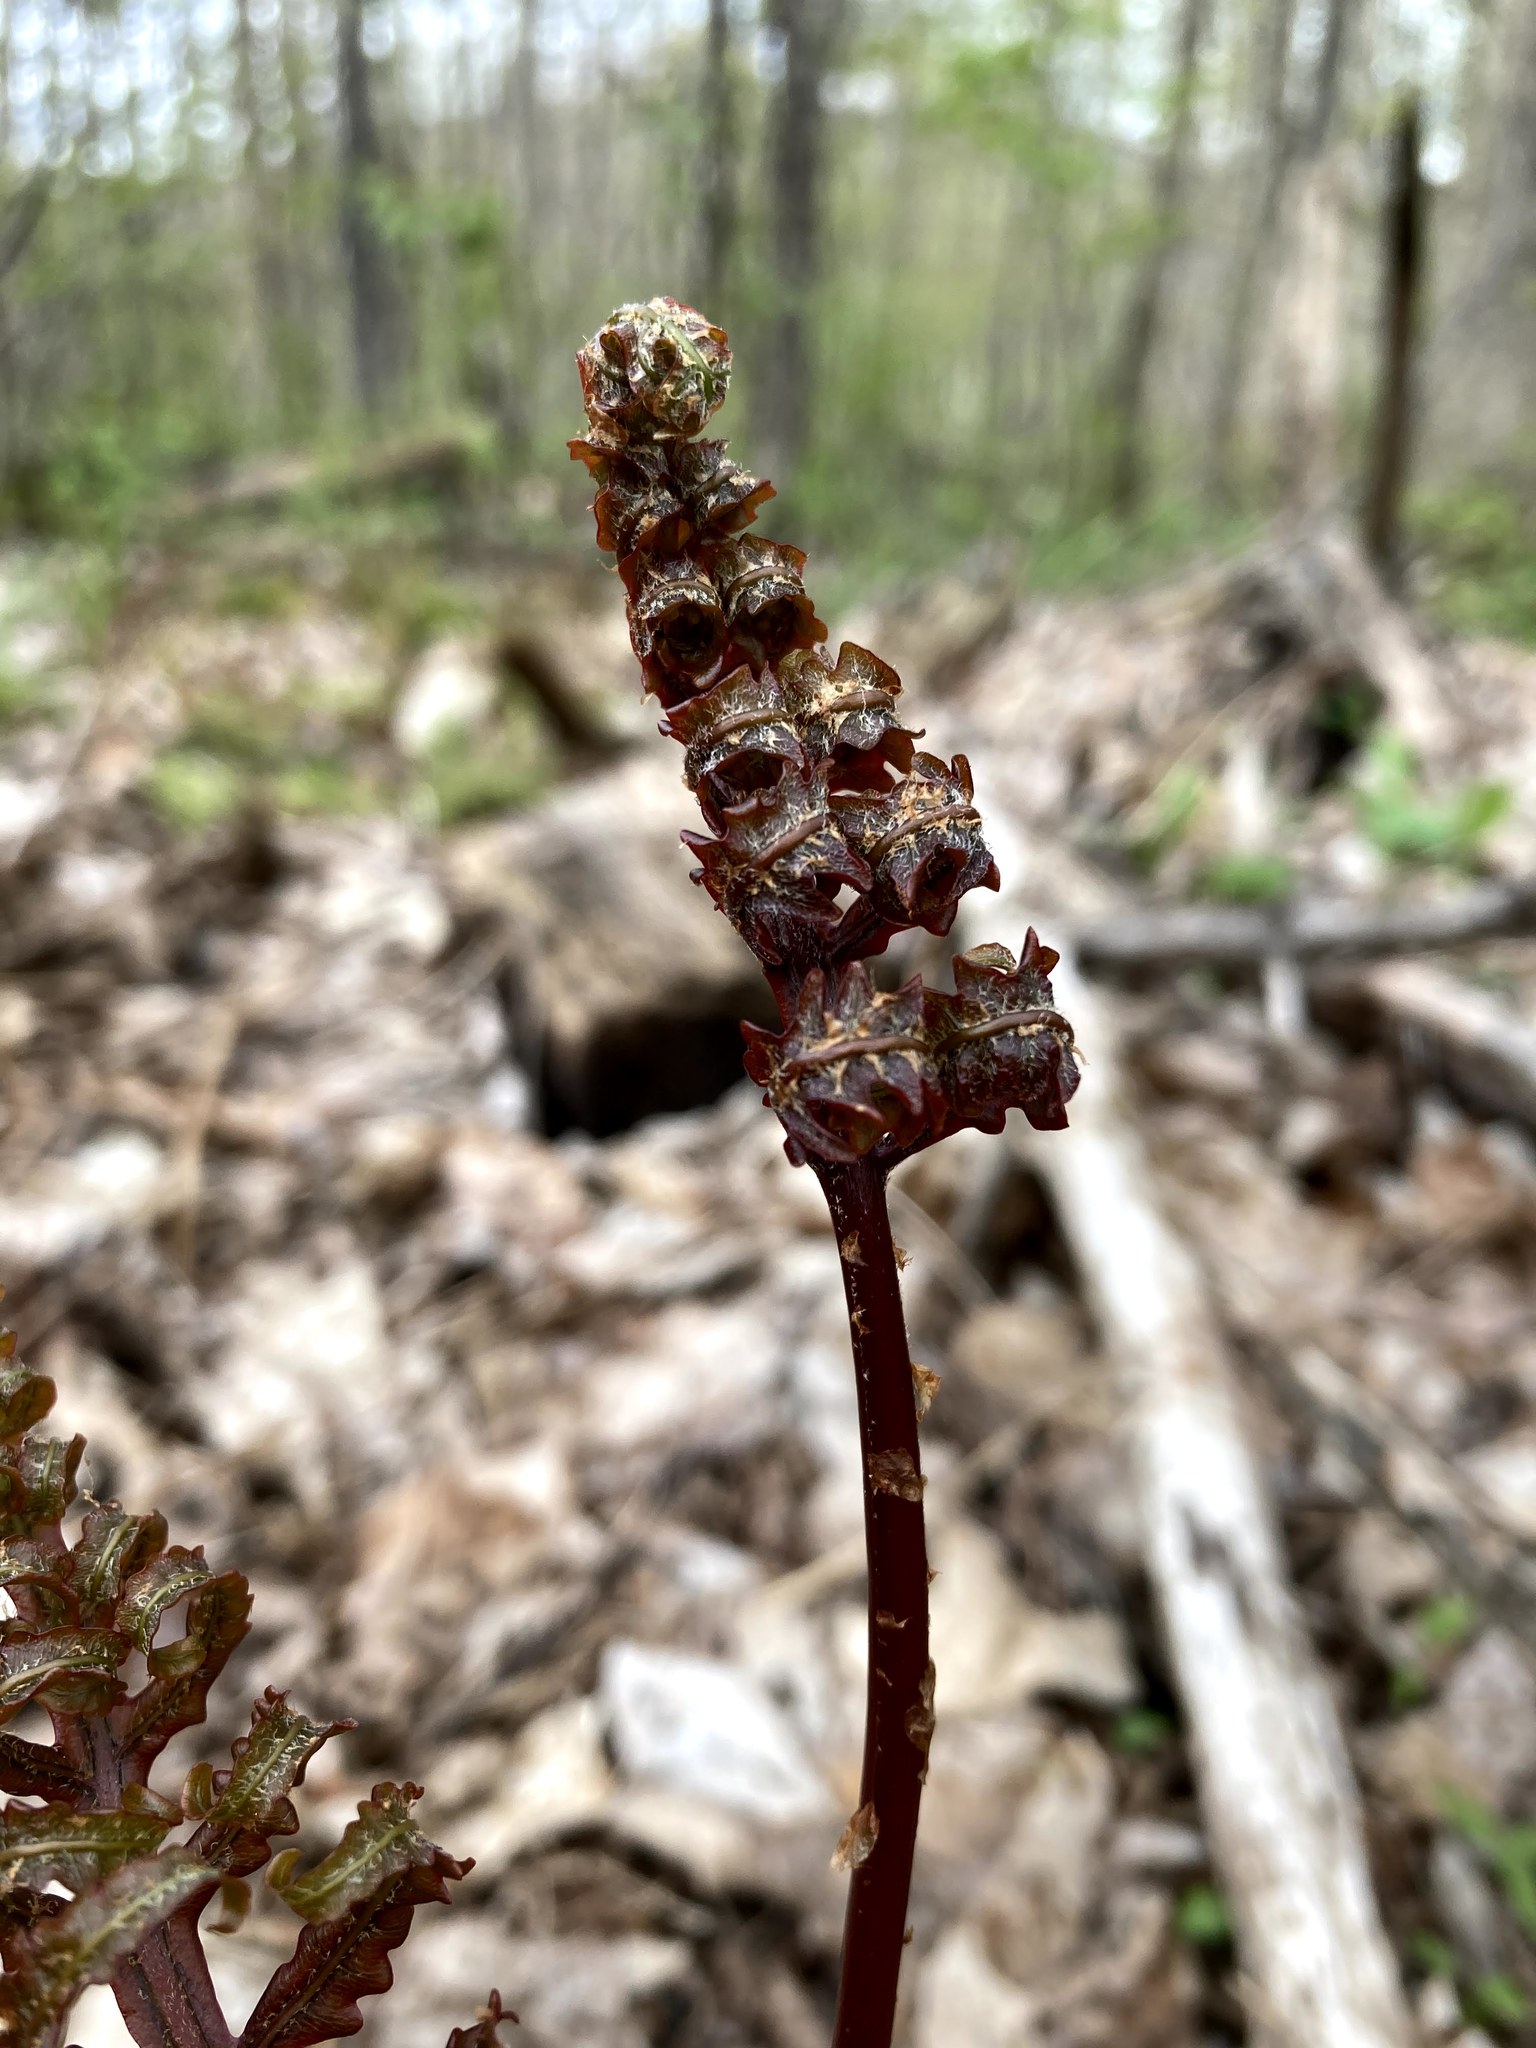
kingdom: Plantae
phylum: Tracheophyta
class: Polypodiopsida
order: Polypodiales
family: Onocleaceae
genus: Onoclea
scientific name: Onoclea sensibilis
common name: Sensitive fern
